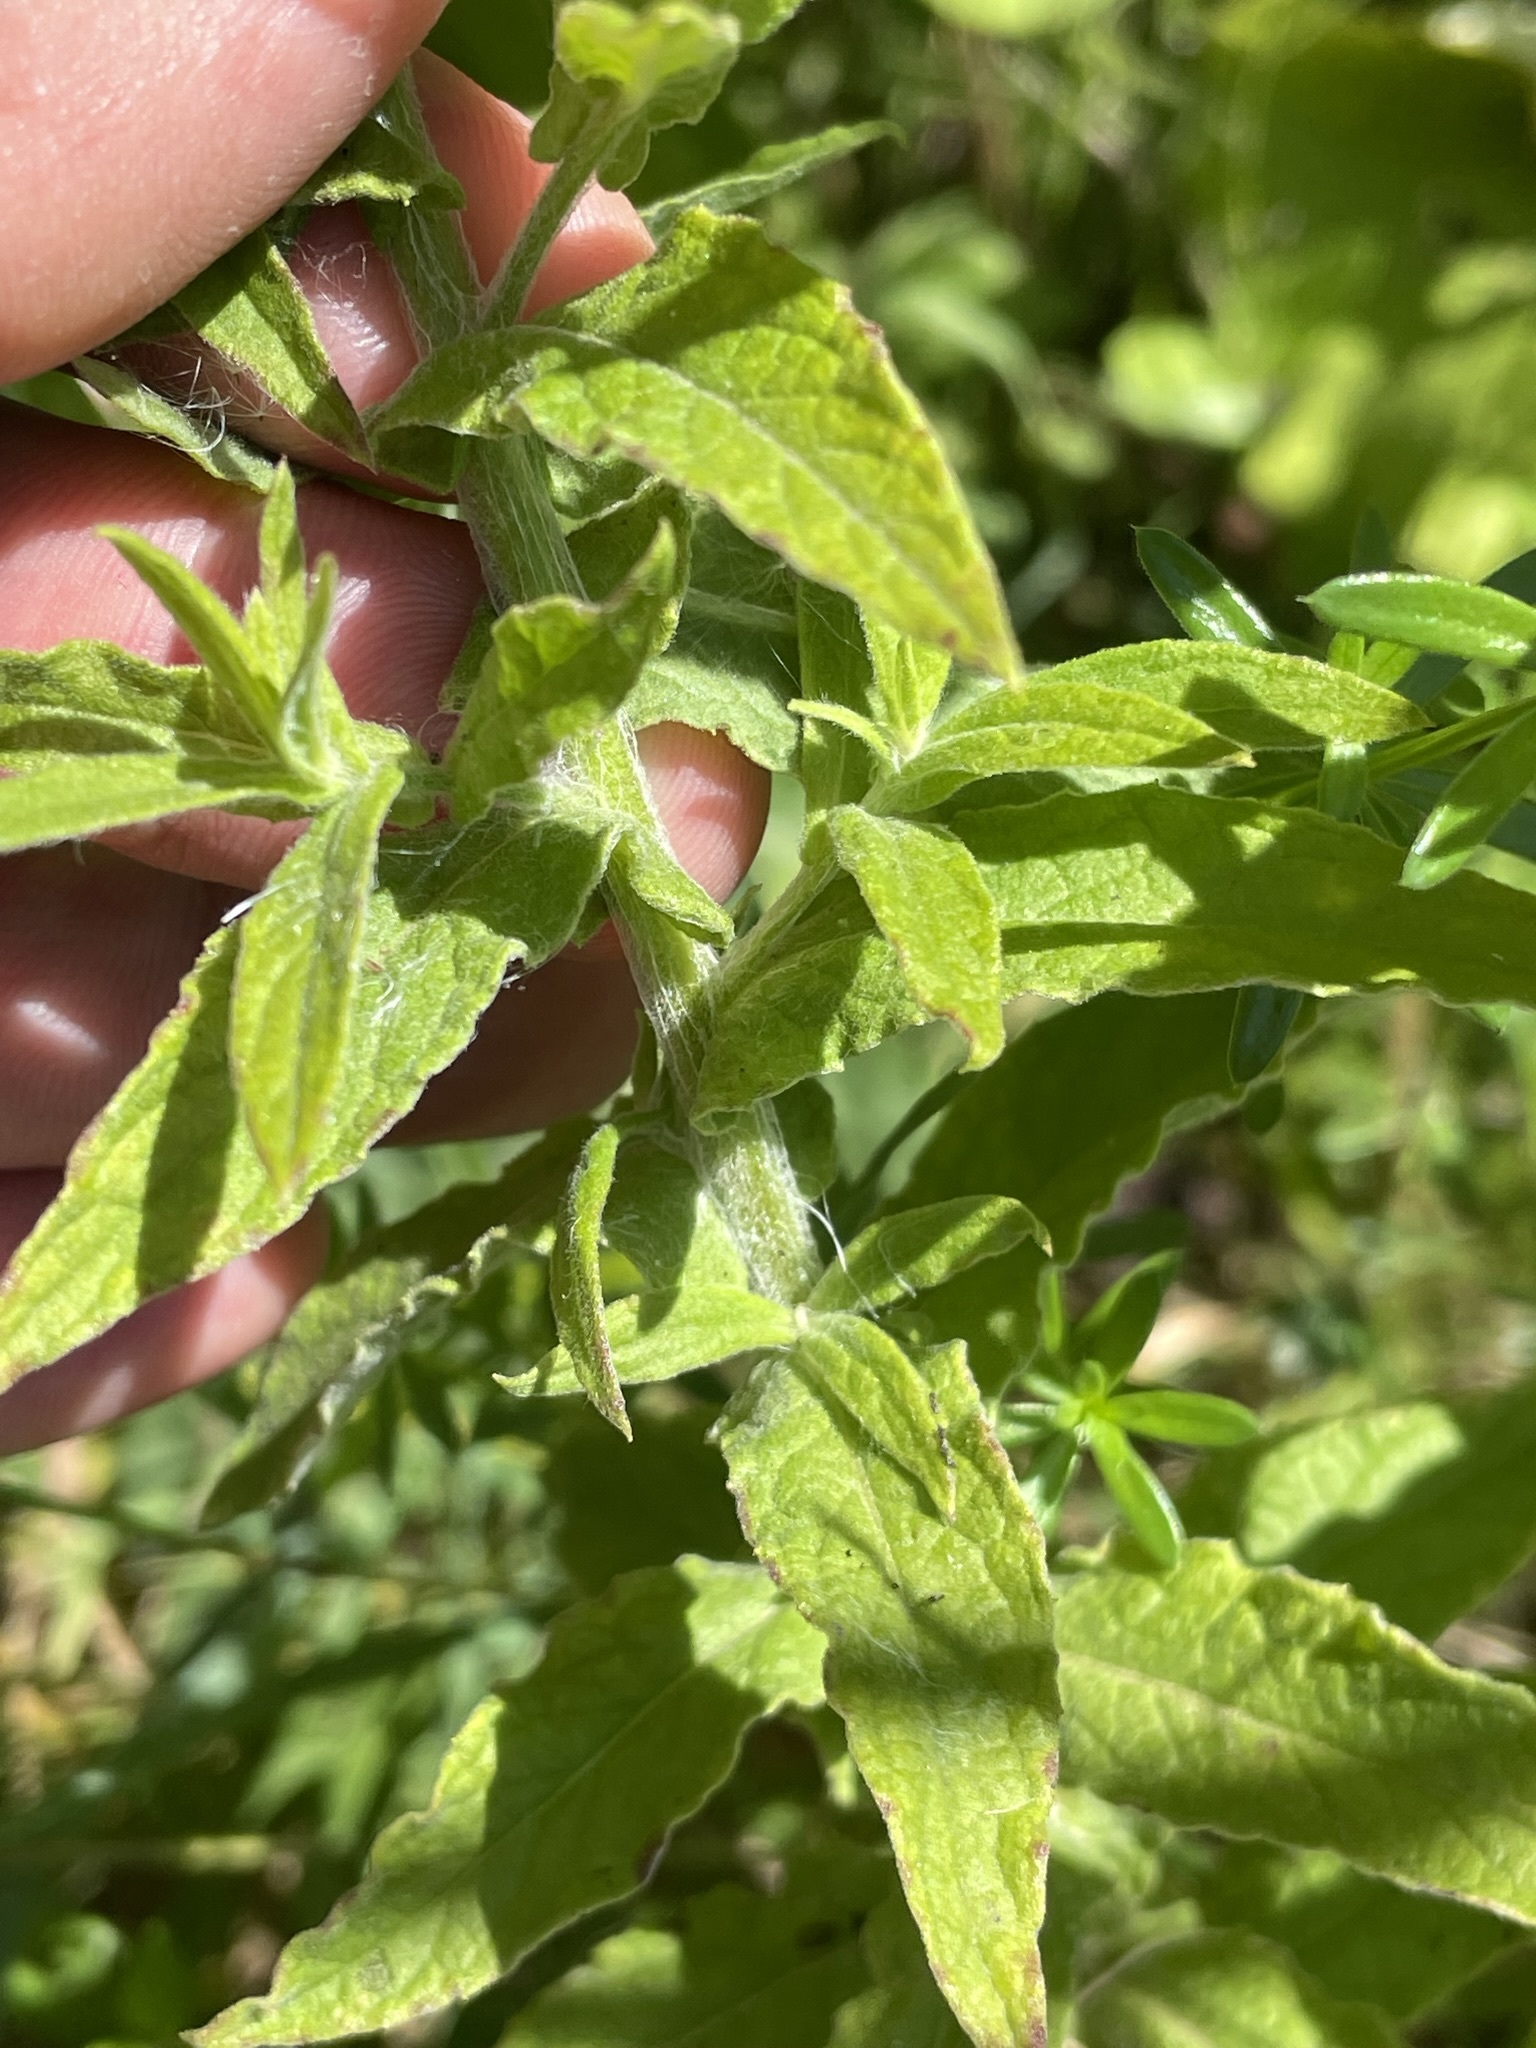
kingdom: Plantae
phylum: Tracheophyta
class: Magnoliopsida
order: Asterales
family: Asteraceae
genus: Pulicaria
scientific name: Pulicaria dysenterica
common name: Common fleabane
